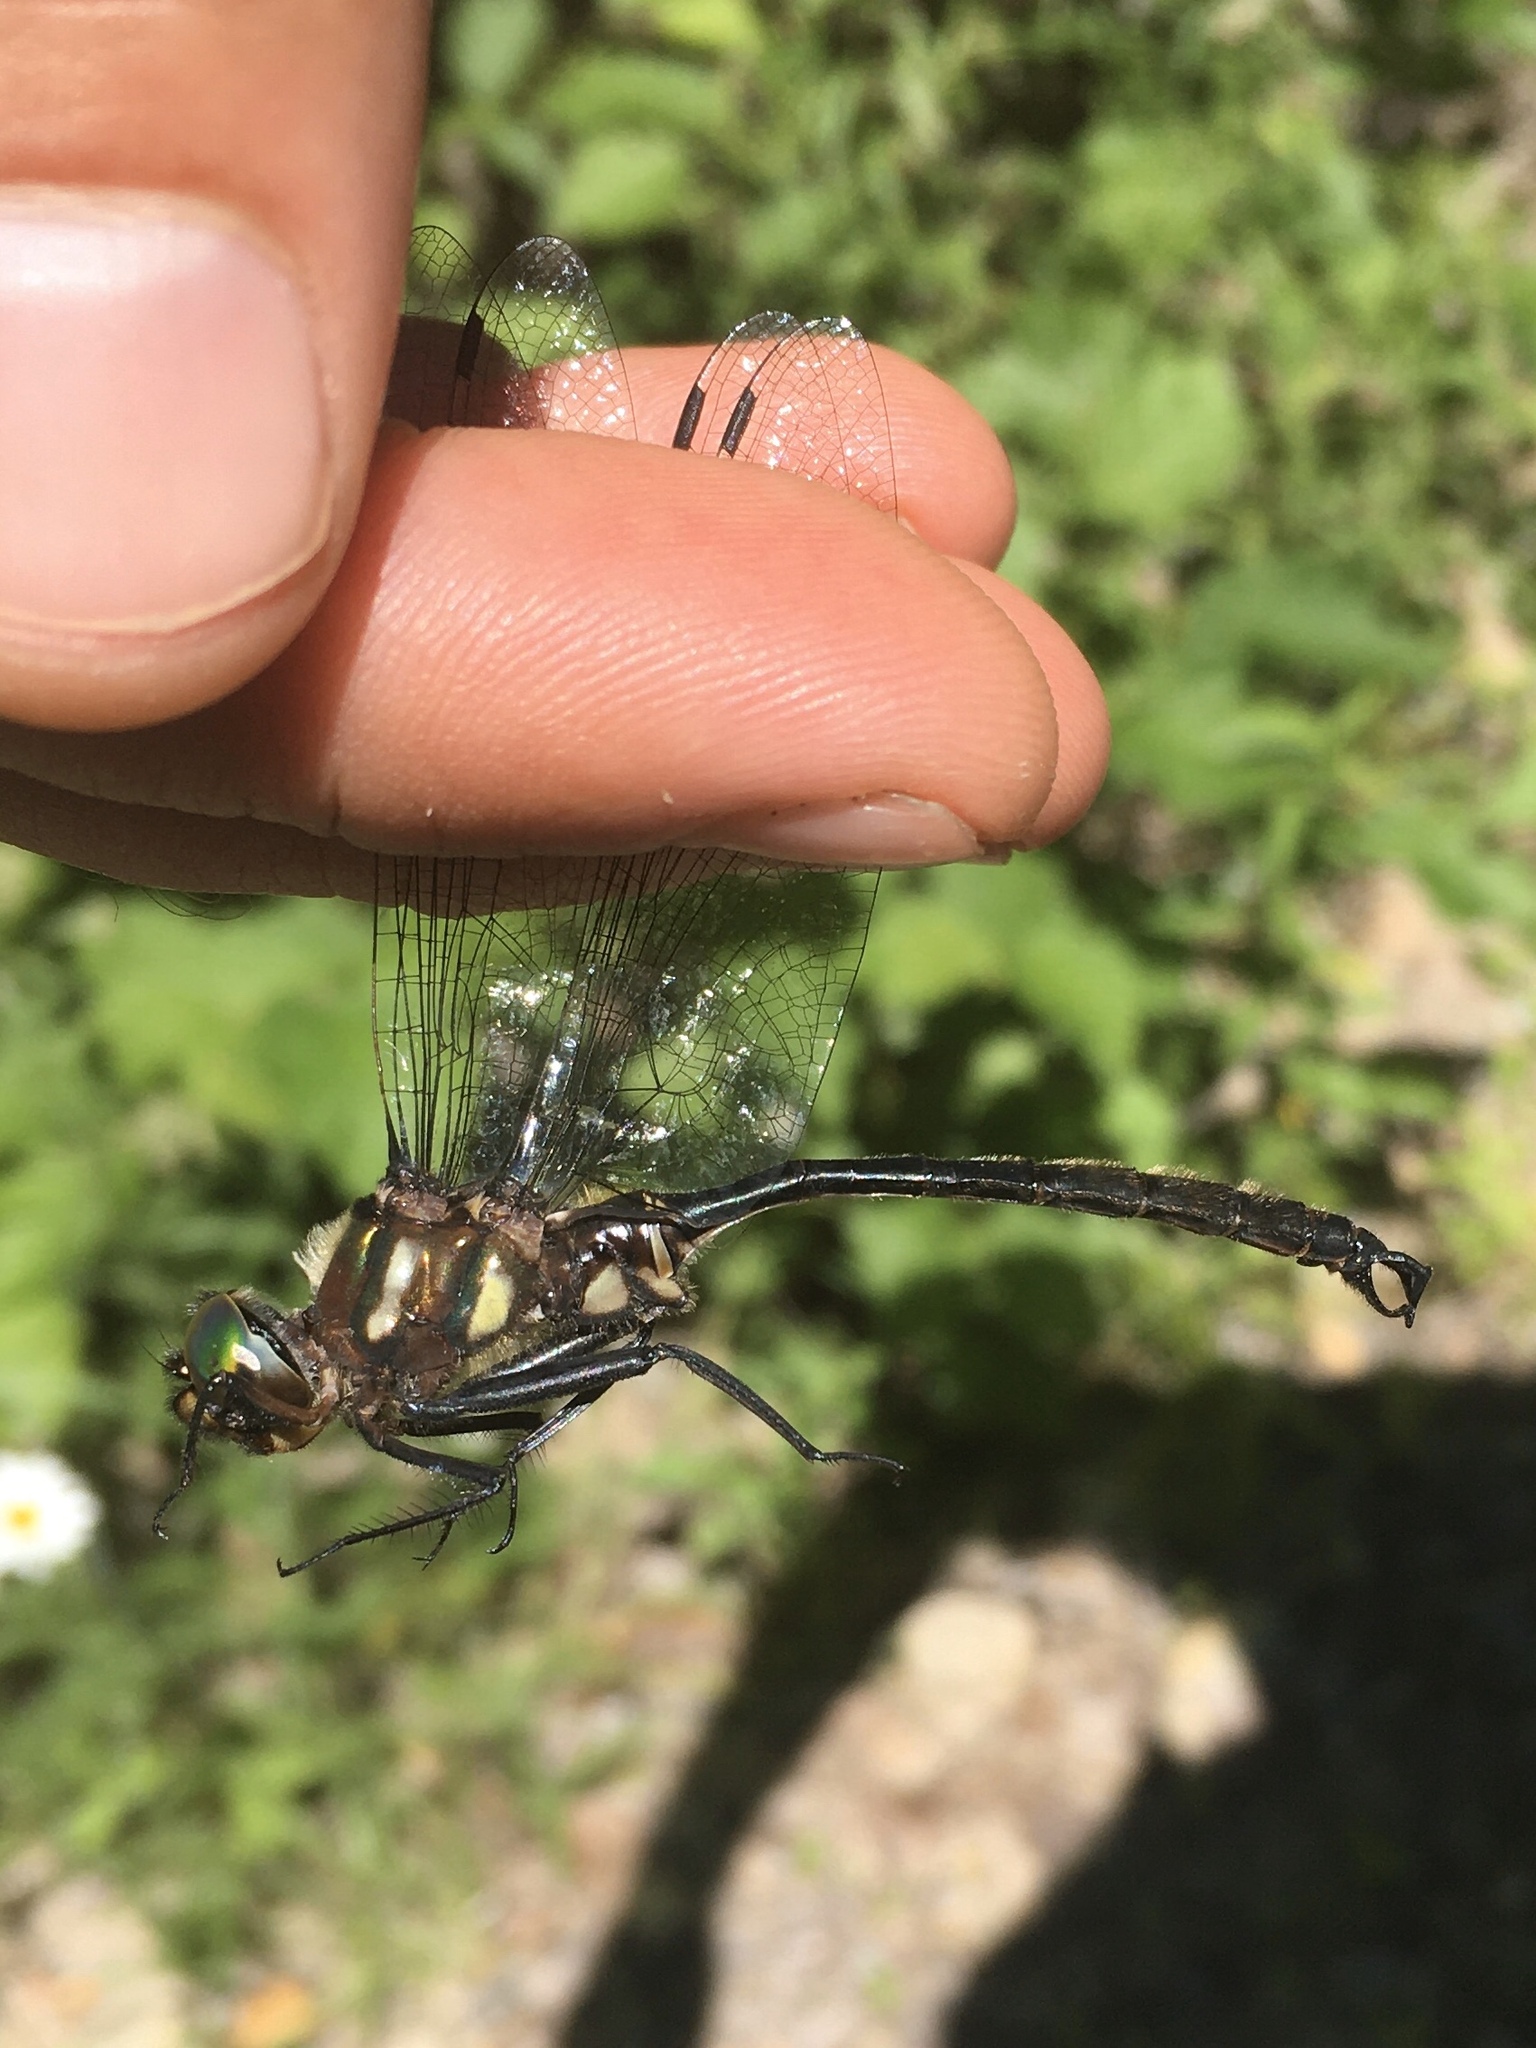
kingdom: Animalia
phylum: Arthropoda
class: Insecta
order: Odonata
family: Corduliidae
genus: Somatochlora
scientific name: Somatochlora tenebrosa
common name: Clamp-tipped emerald
